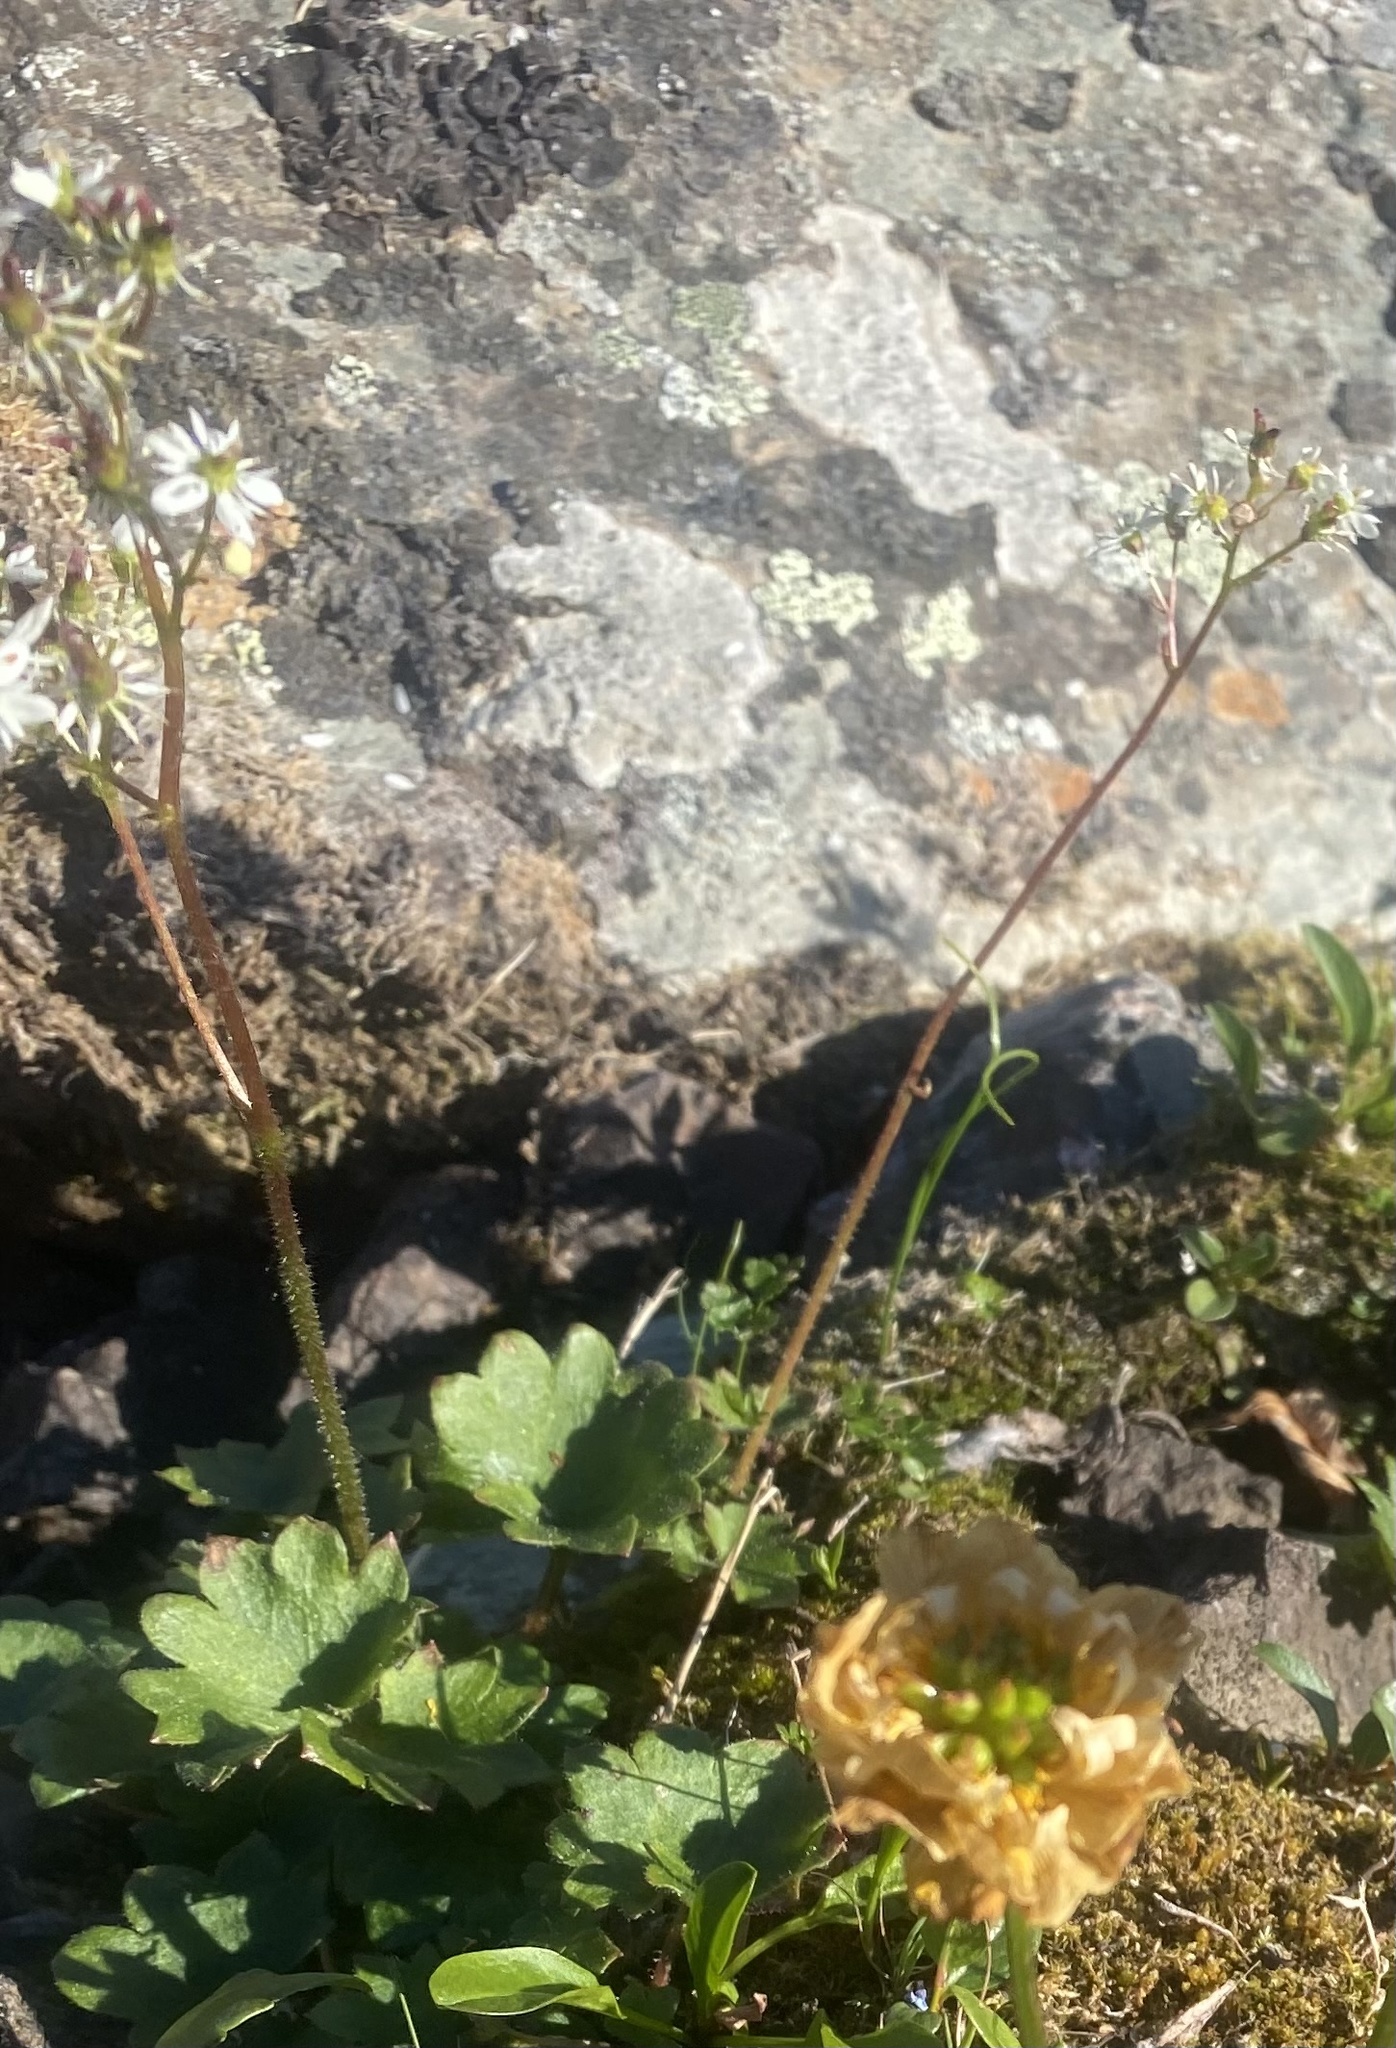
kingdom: Plantae
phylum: Tracheophyta
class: Magnoliopsida
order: Saxifragales
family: Saxifragaceae
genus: Micranthes
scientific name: Micranthes nelsoniana
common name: Nelson's saxifrage
